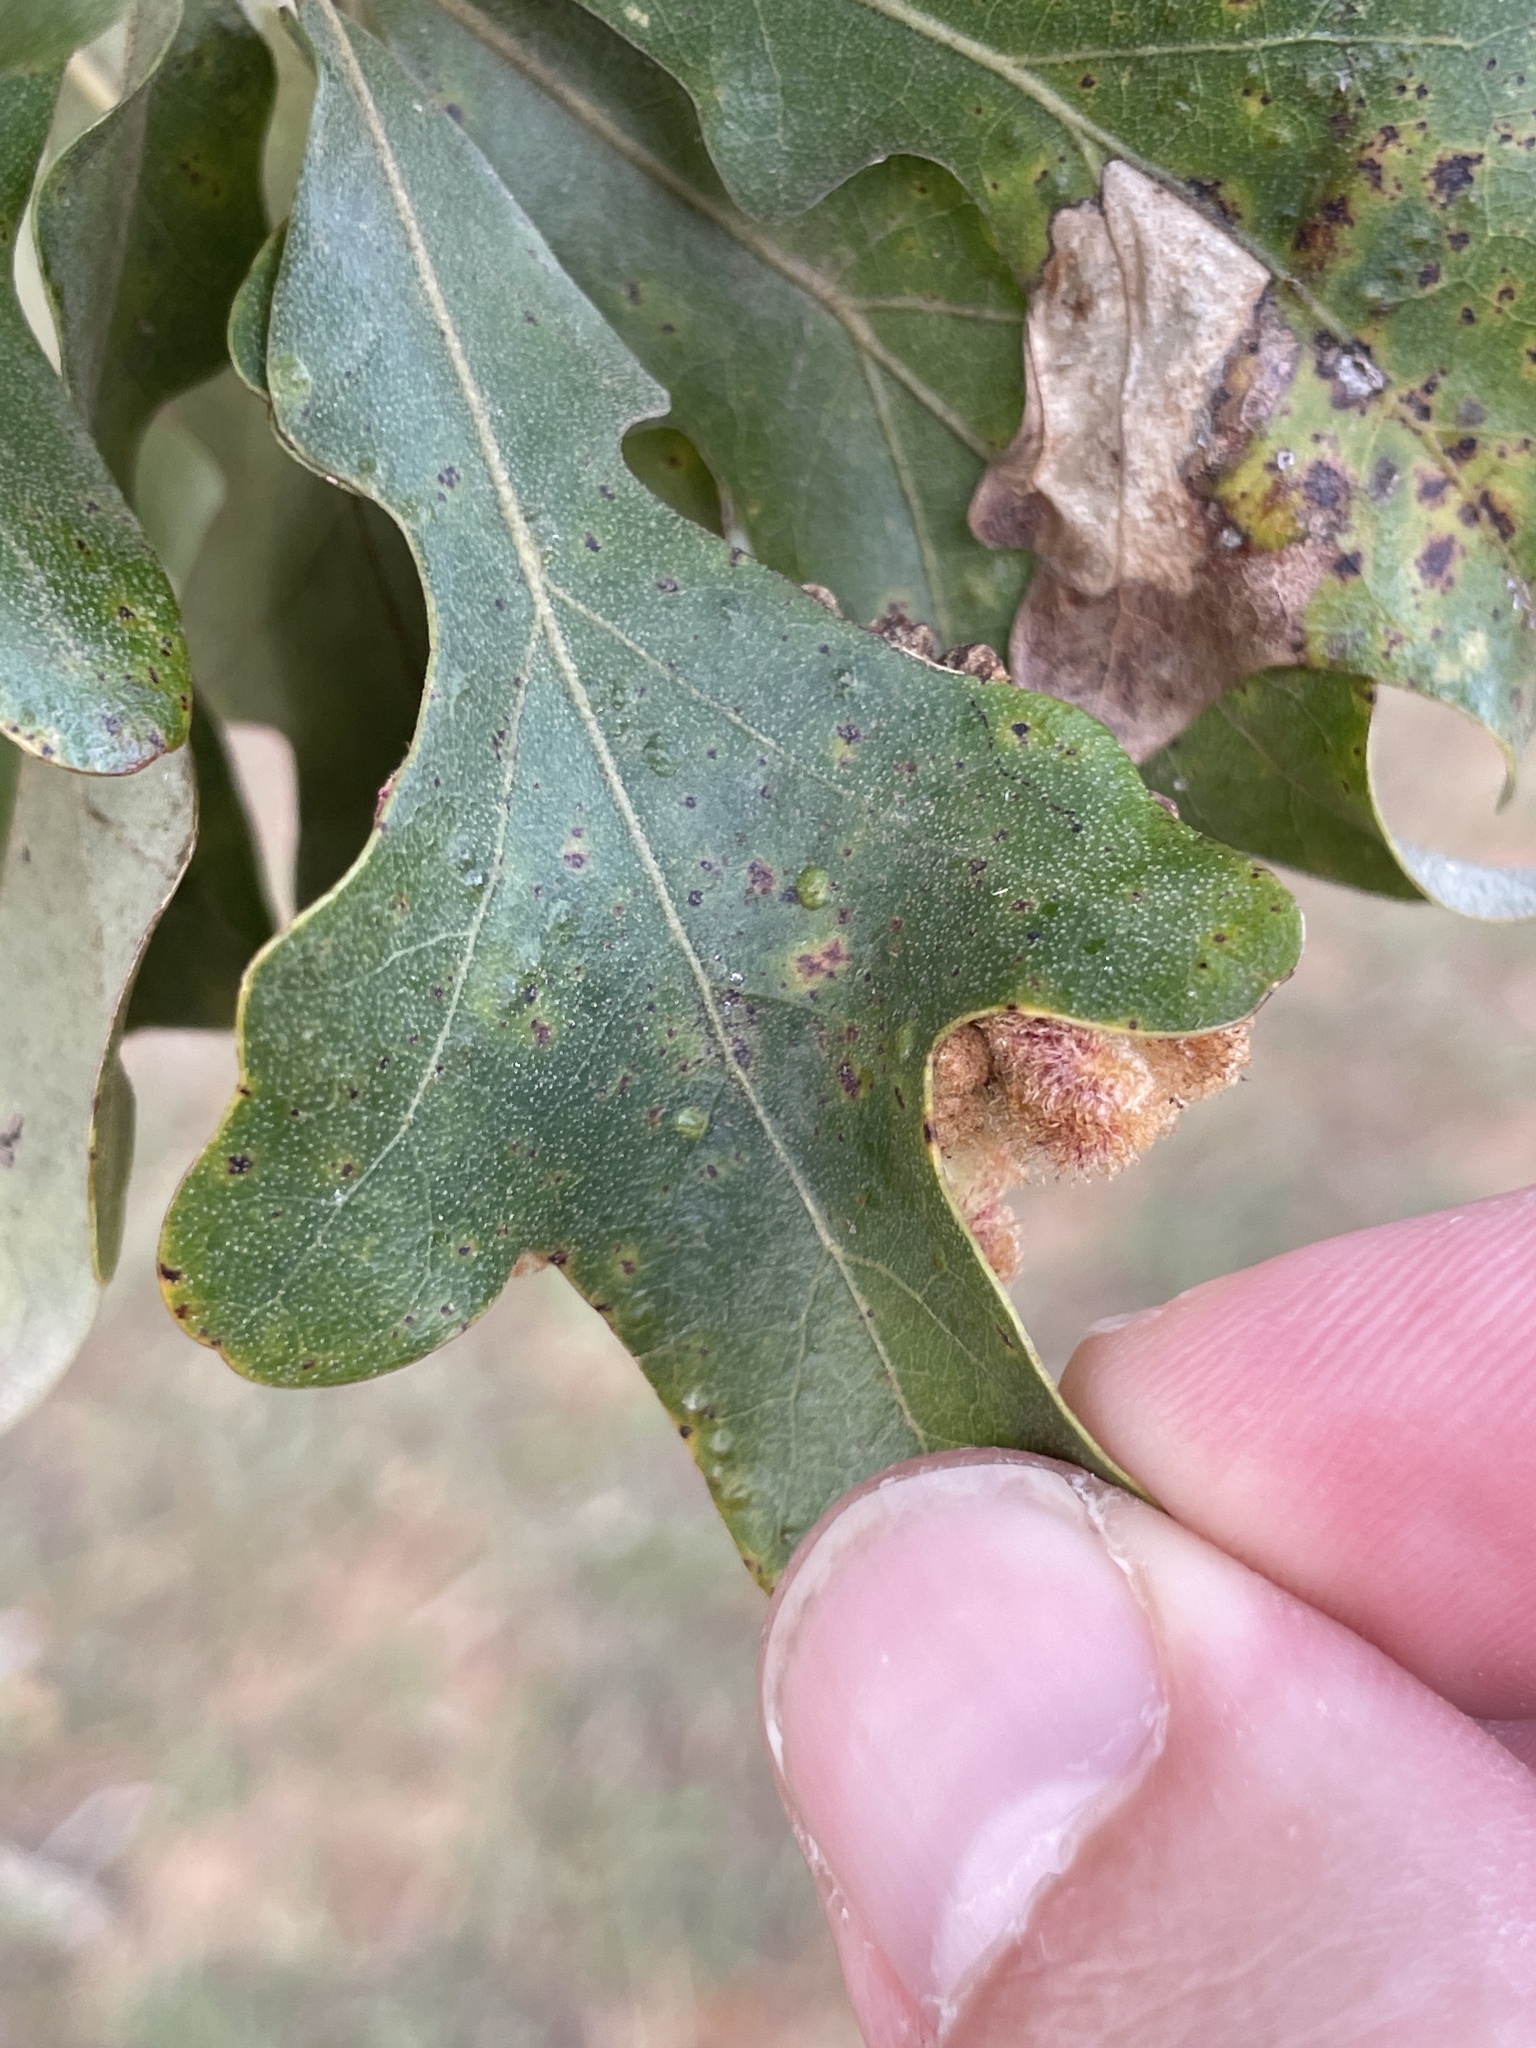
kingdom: Animalia
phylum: Arthropoda
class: Insecta
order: Hymenoptera
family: Cynipidae
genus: Andricus
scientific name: Andricus
